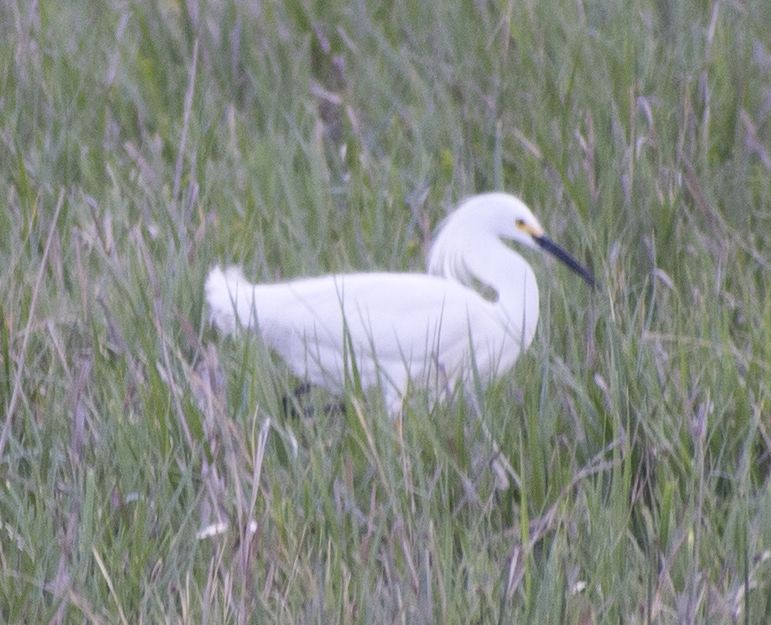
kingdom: Animalia
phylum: Chordata
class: Aves
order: Pelecaniformes
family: Ardeidae
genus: Egretta
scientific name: Egretta thula
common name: Snowy egret
